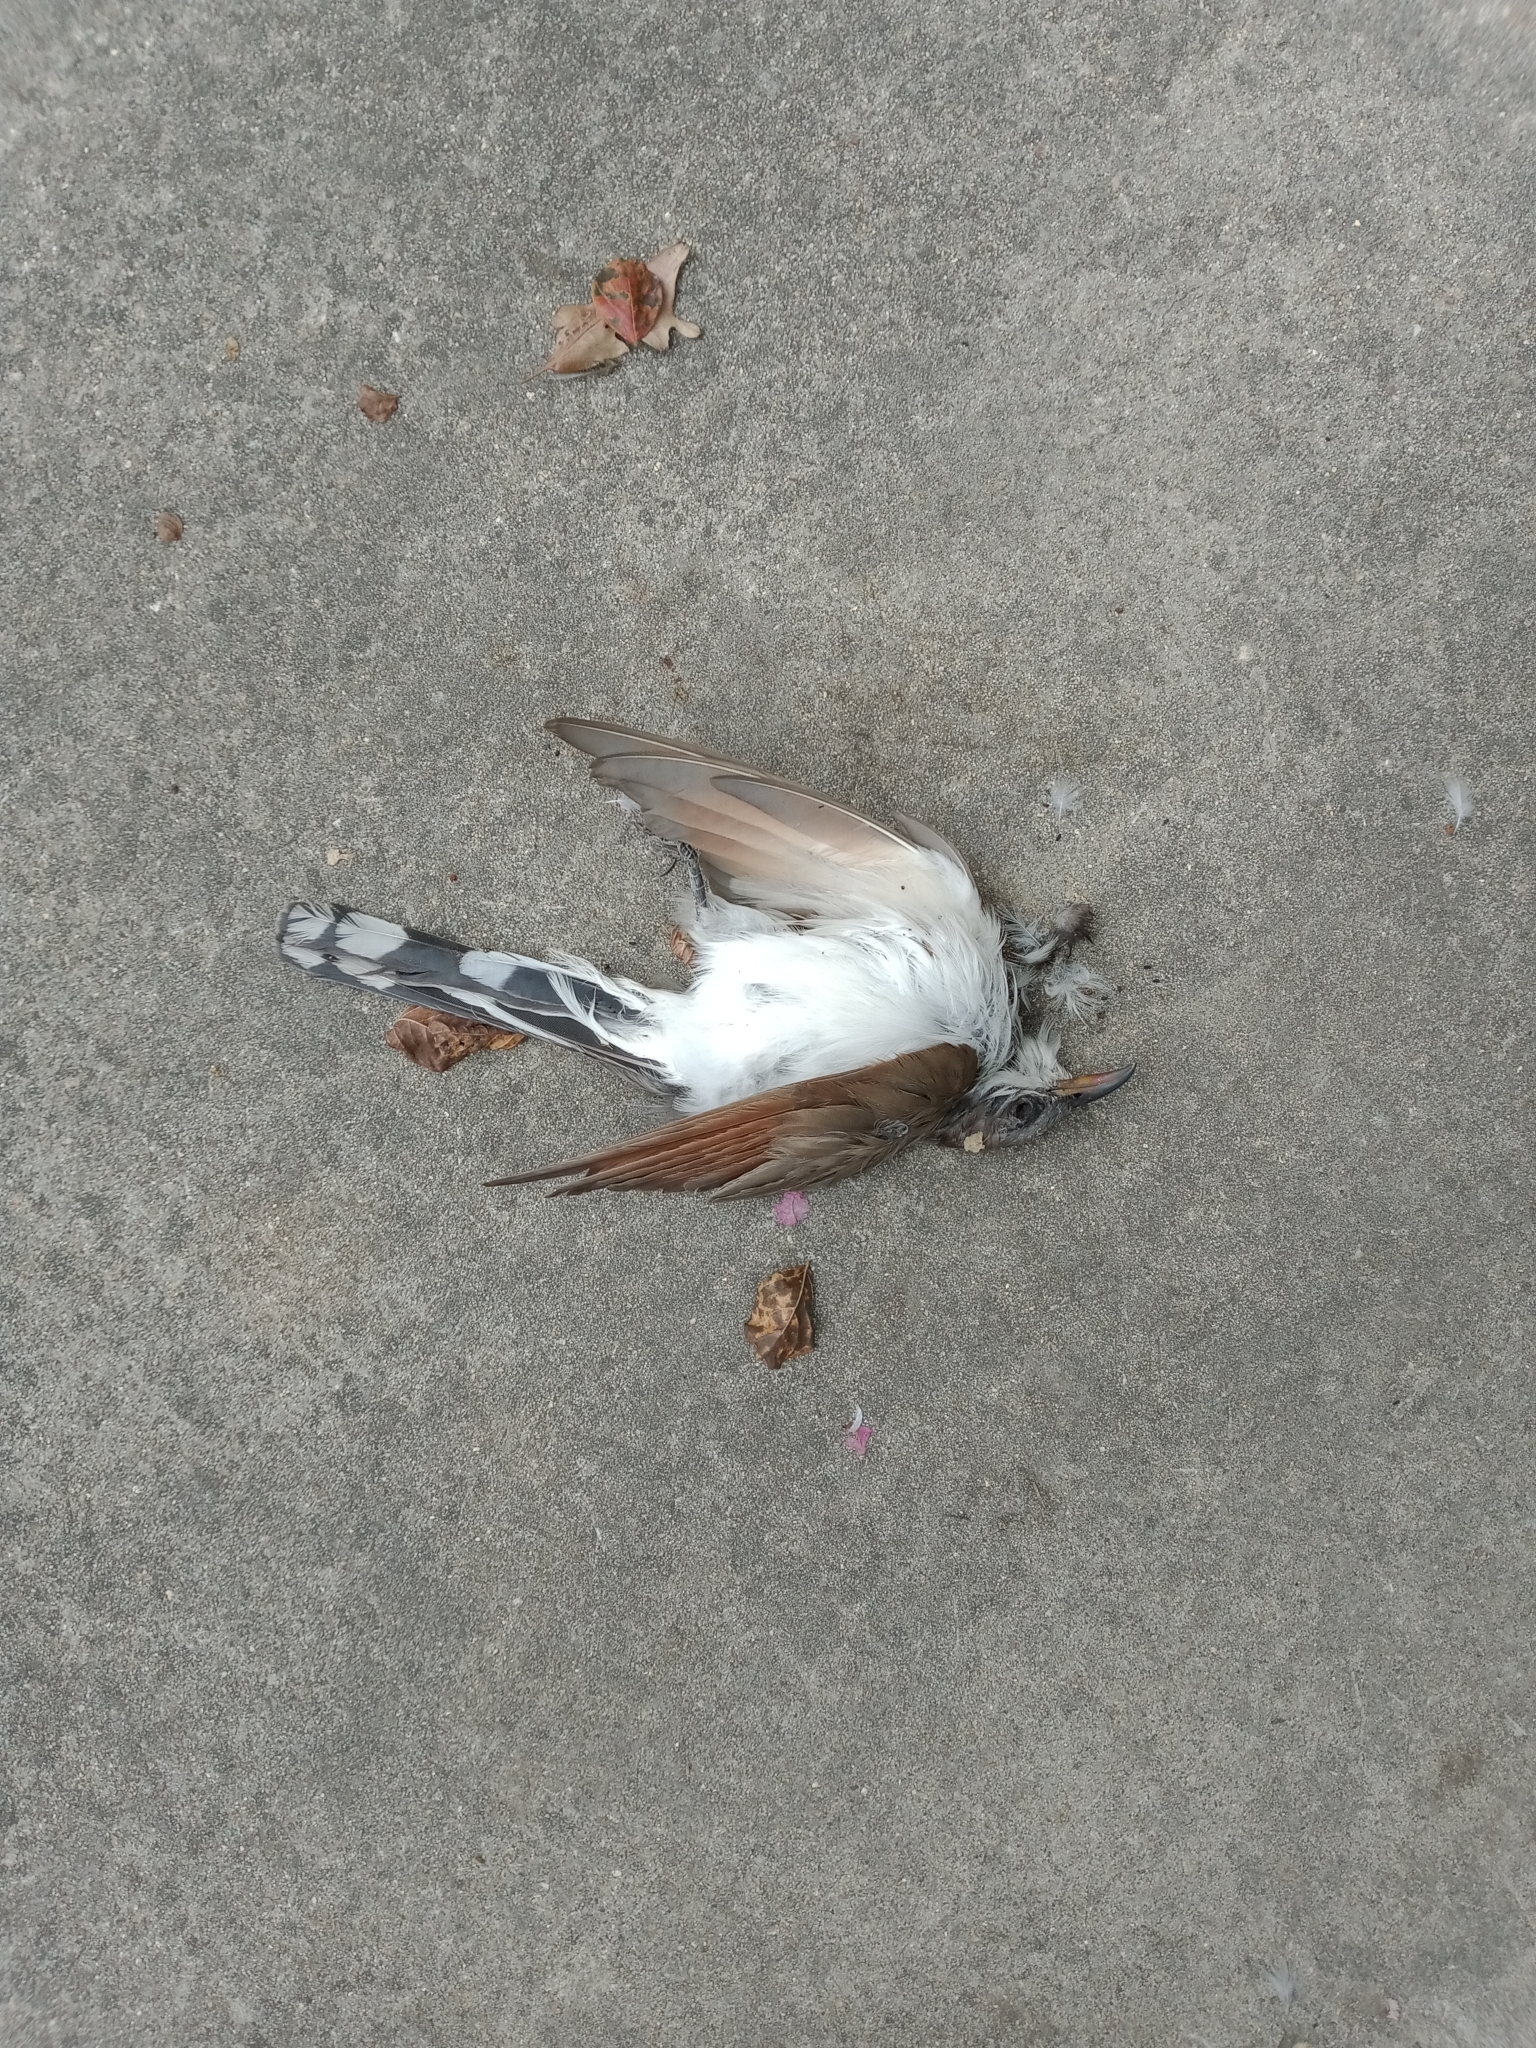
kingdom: Animalia
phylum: Chordata
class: Aves
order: Cuculiformes
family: Cuculidae
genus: Coccyzus
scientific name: Coccyzus americanus
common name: Yellow-billed cuckoo
